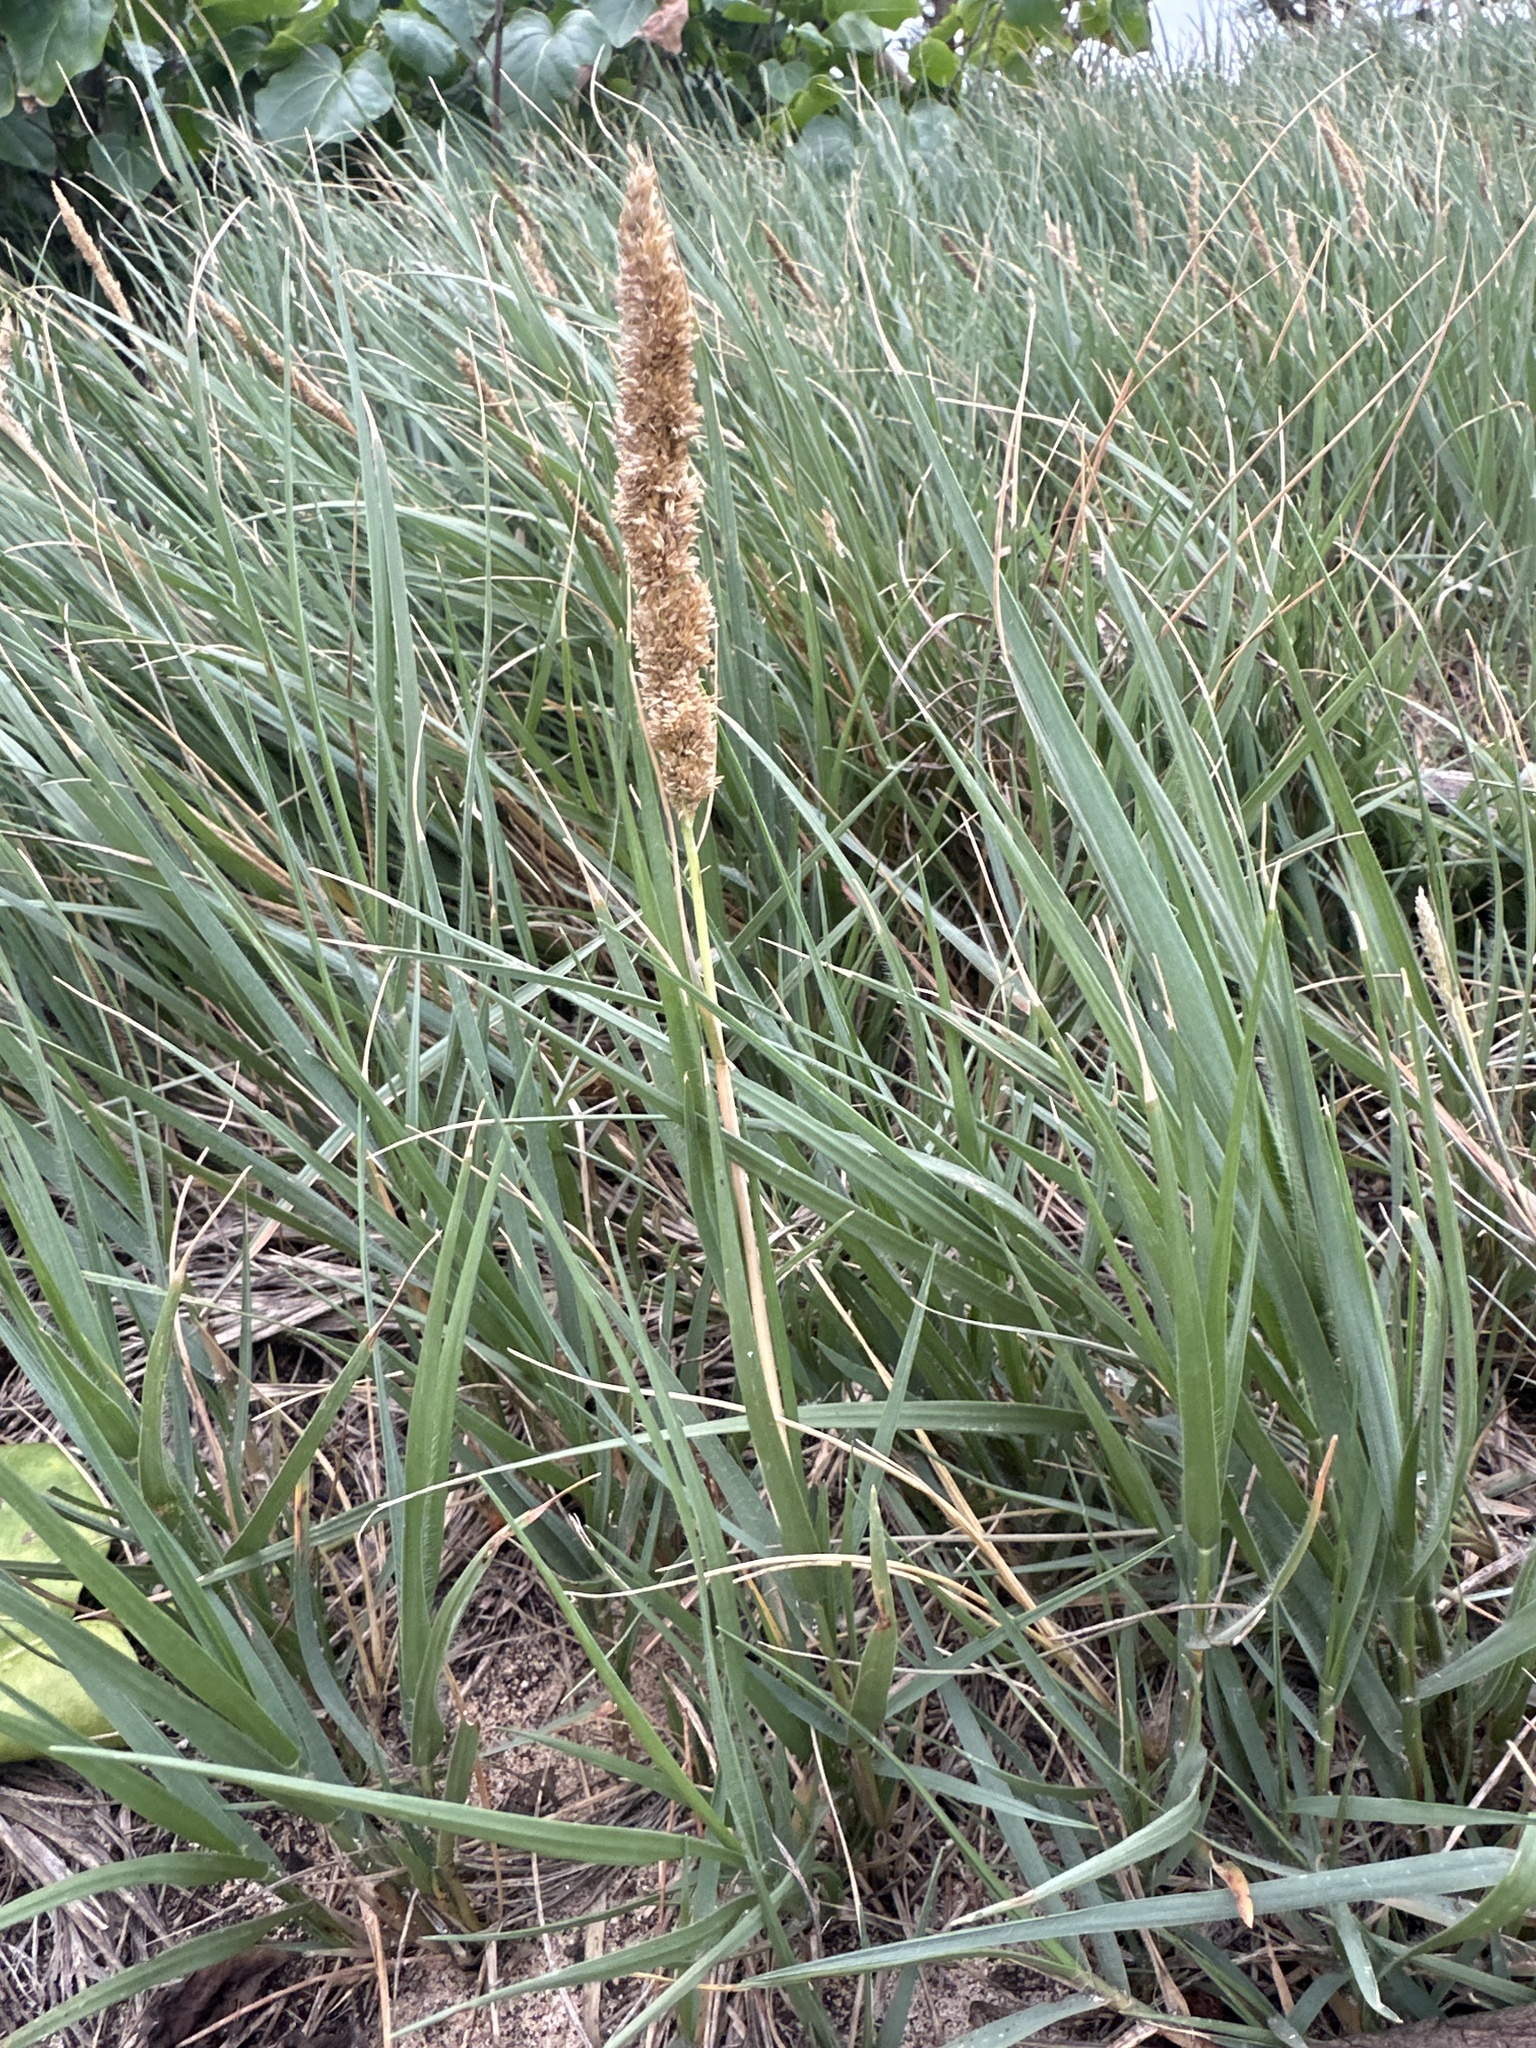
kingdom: Plantae
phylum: Tracheophyta
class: Liliopsida
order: Poales
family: Poaceae
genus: Sporobolus
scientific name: Sporobolus virginicus
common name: Beach dropseed
